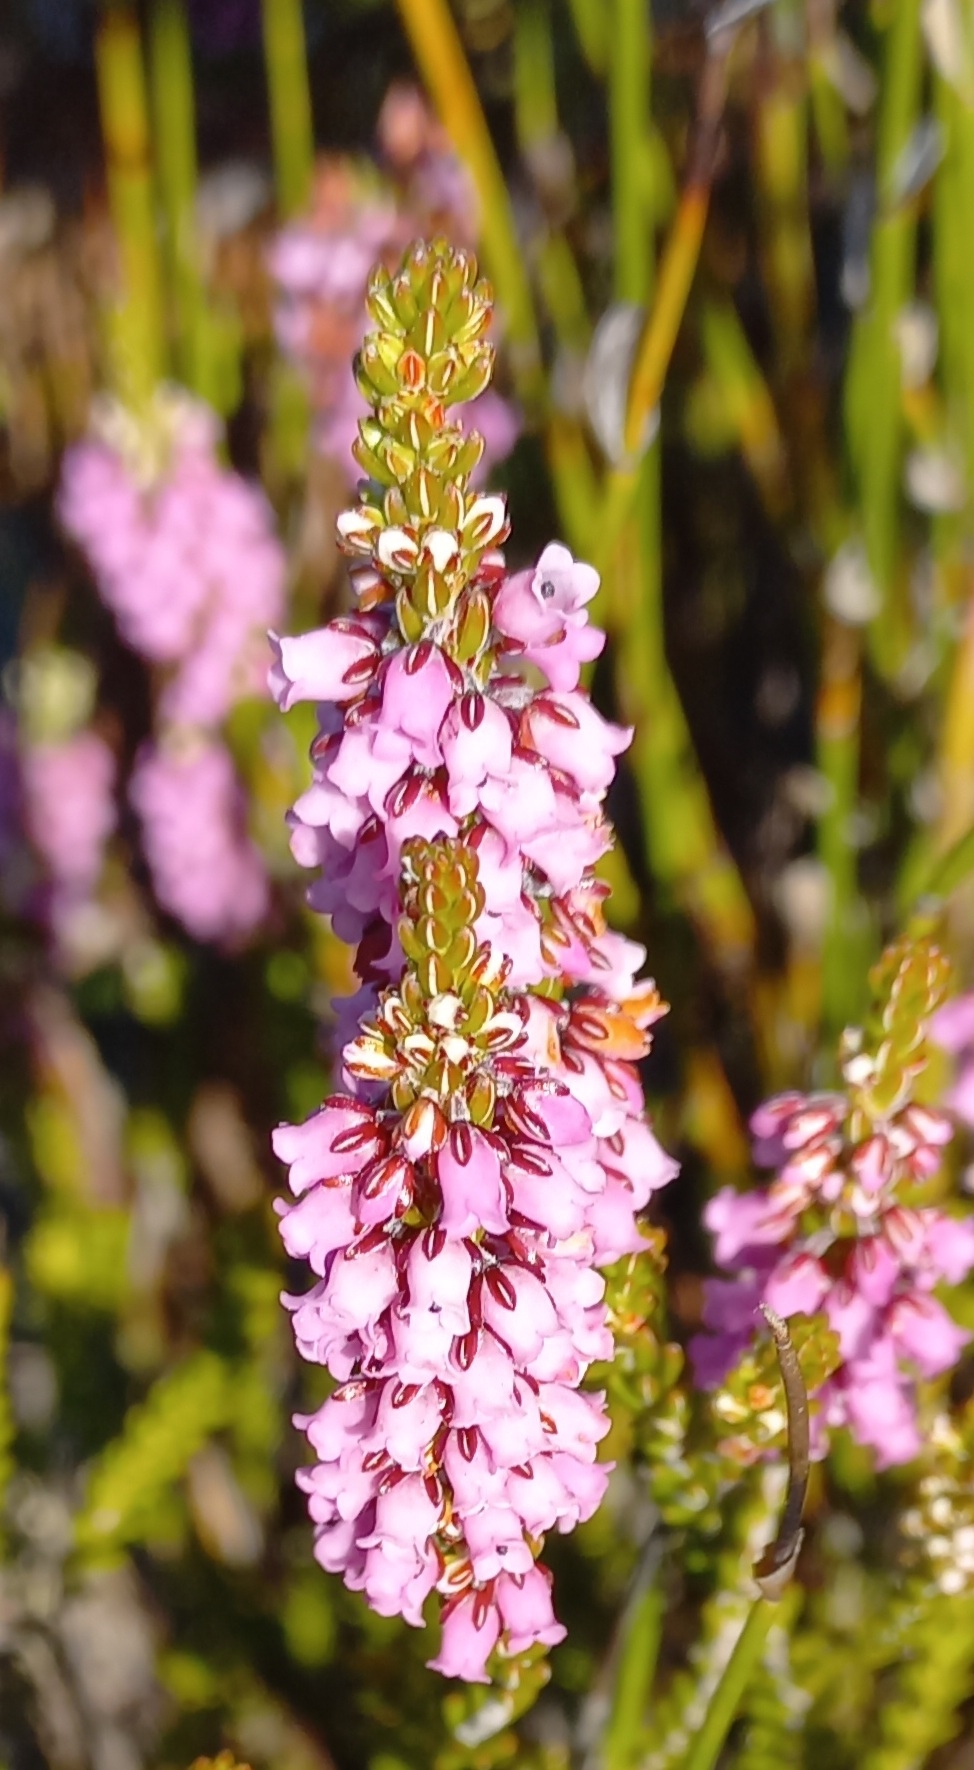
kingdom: Plantae
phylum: Tracheophyta
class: Magnoliopsida
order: Ericales
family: Ericaceae
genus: Erica
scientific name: Erica pulchella
